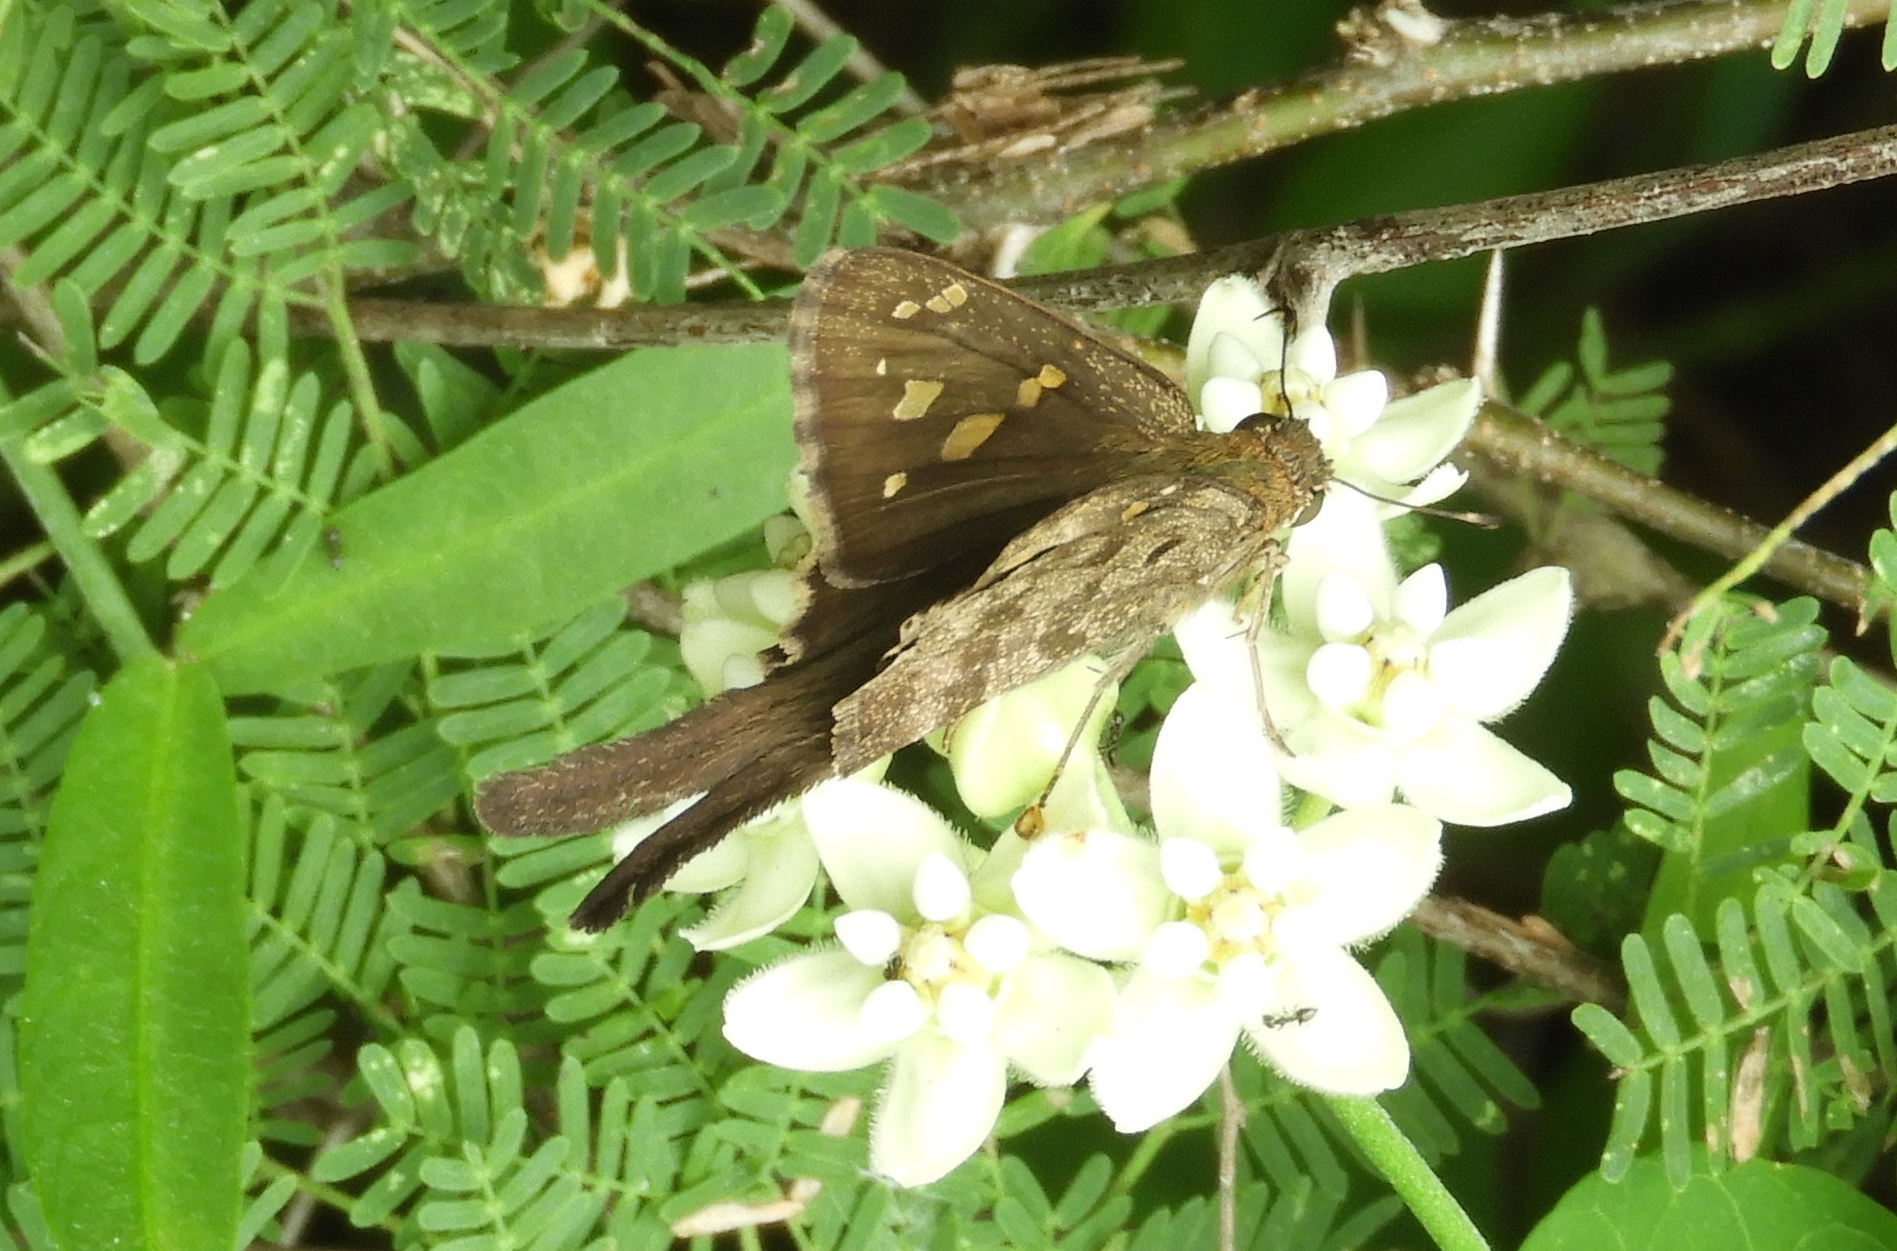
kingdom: Animalia
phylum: Arthropoda
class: Insecta
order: Lepidoptera
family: Hesperiidae
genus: Thorybes
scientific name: Thorybes
